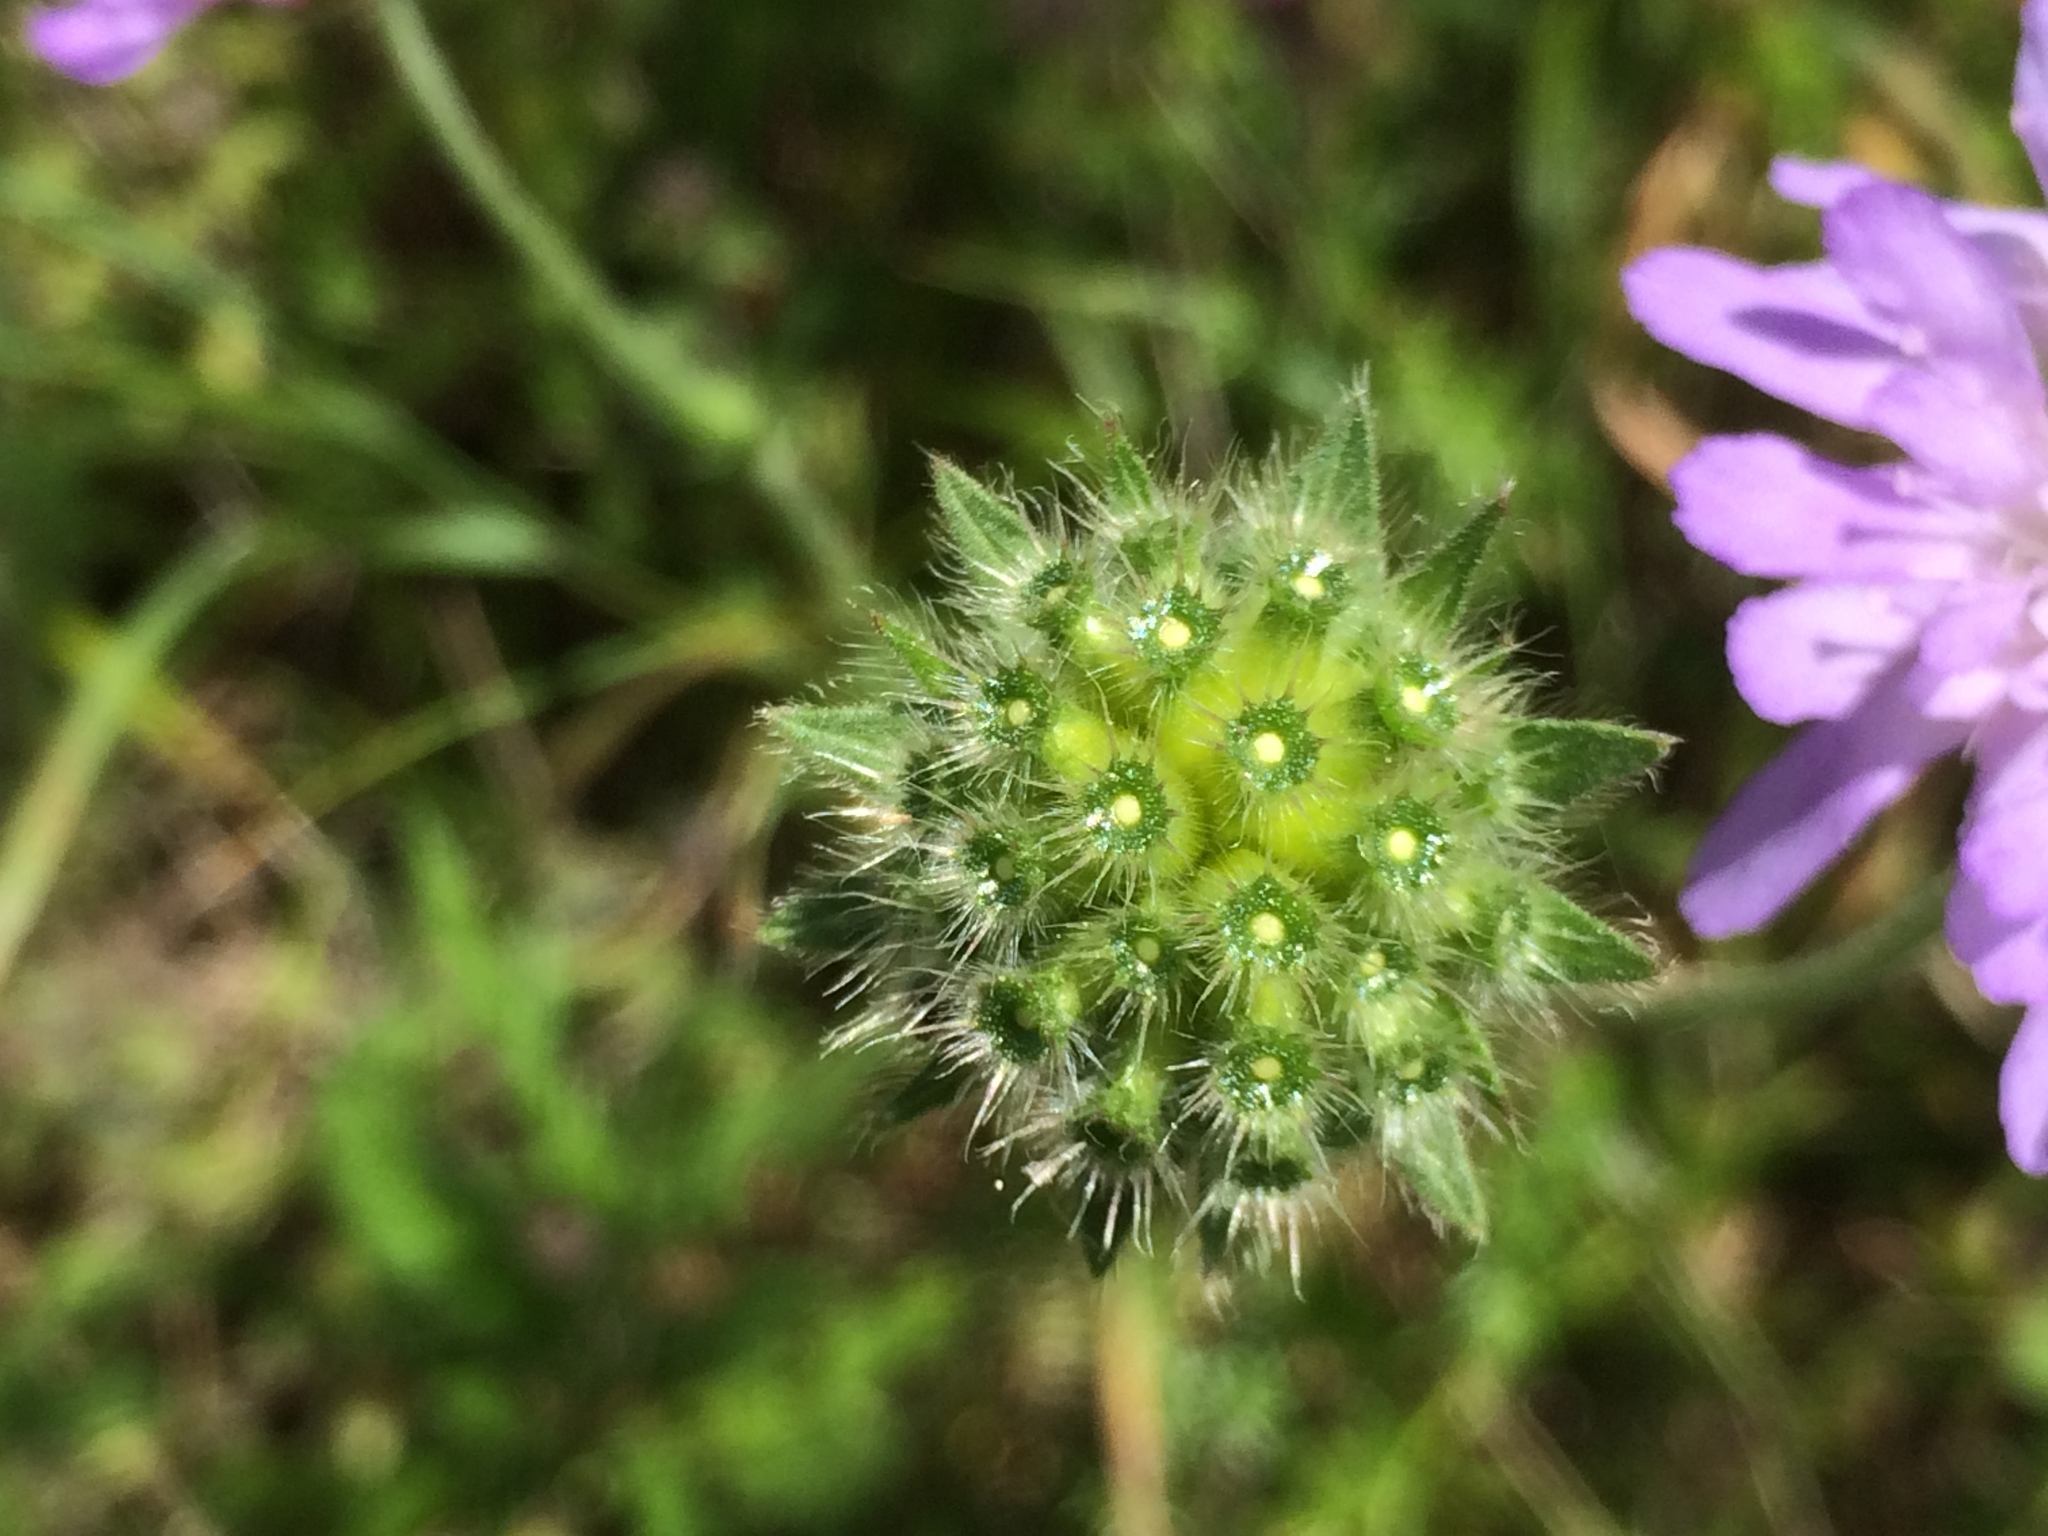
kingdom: Plantae
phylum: Tracheophyta
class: Magnoliopsida
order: Dipsacales
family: Caprifoliaceae
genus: Knautia
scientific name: Knautia arvensis
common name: Field scabiosa
